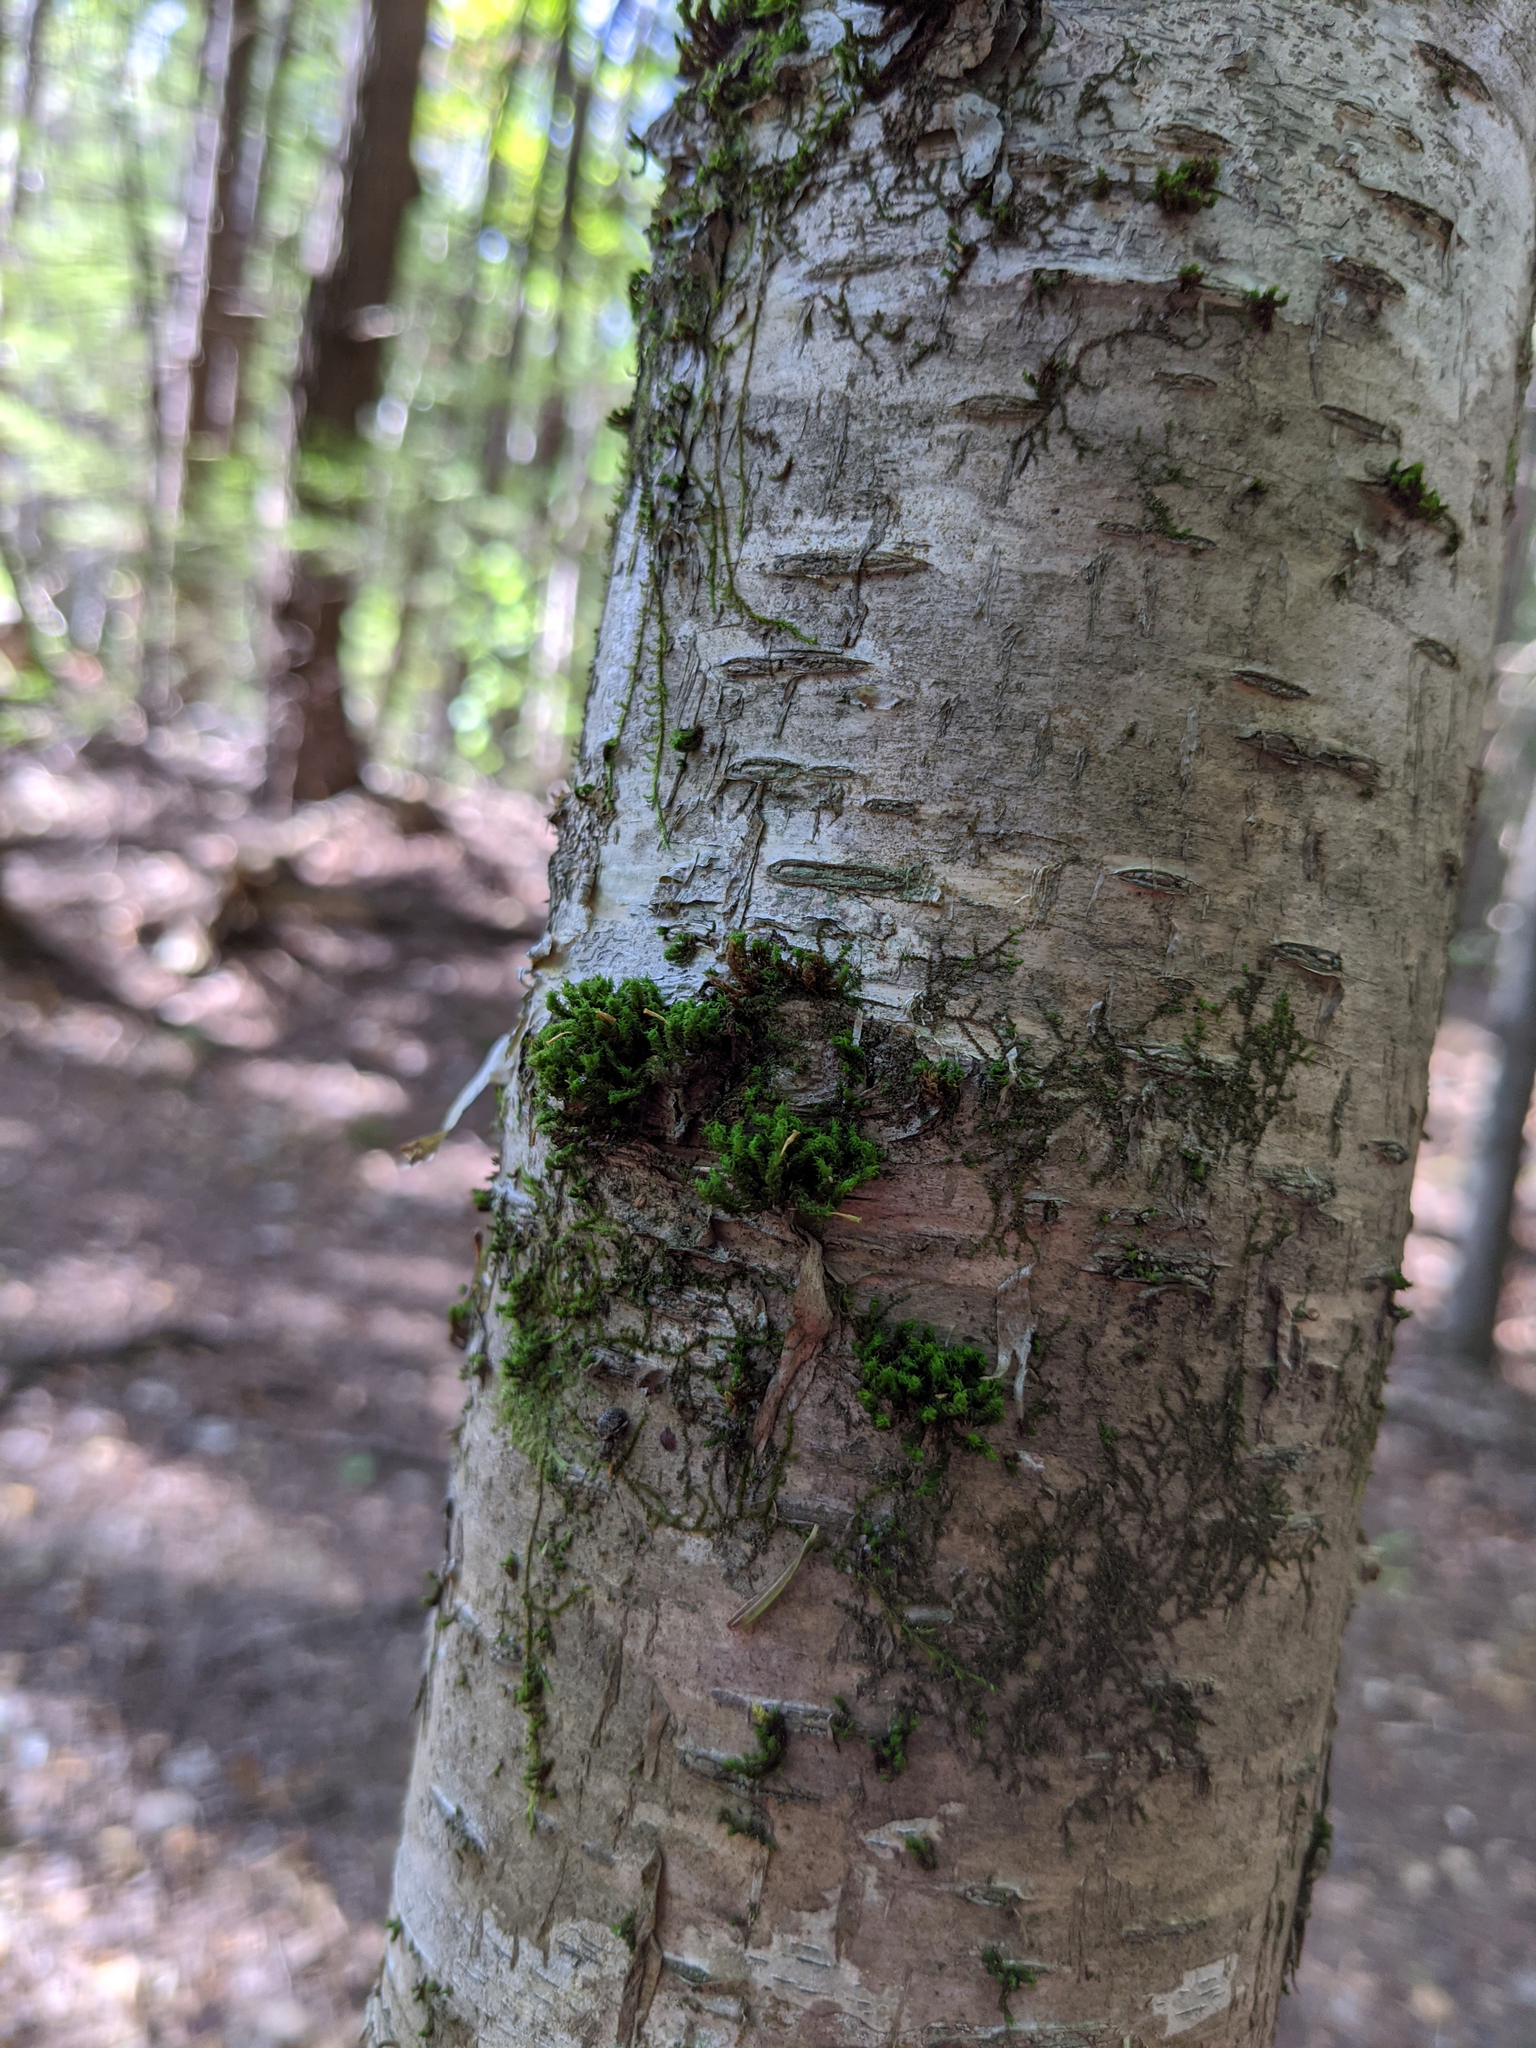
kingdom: Plantae
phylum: Bryophyta
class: Bryopsida
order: Orthotrichales
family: Orthotrichaceae
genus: Ulota
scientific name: Ulota crispa
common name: Crisped pincushion moss
